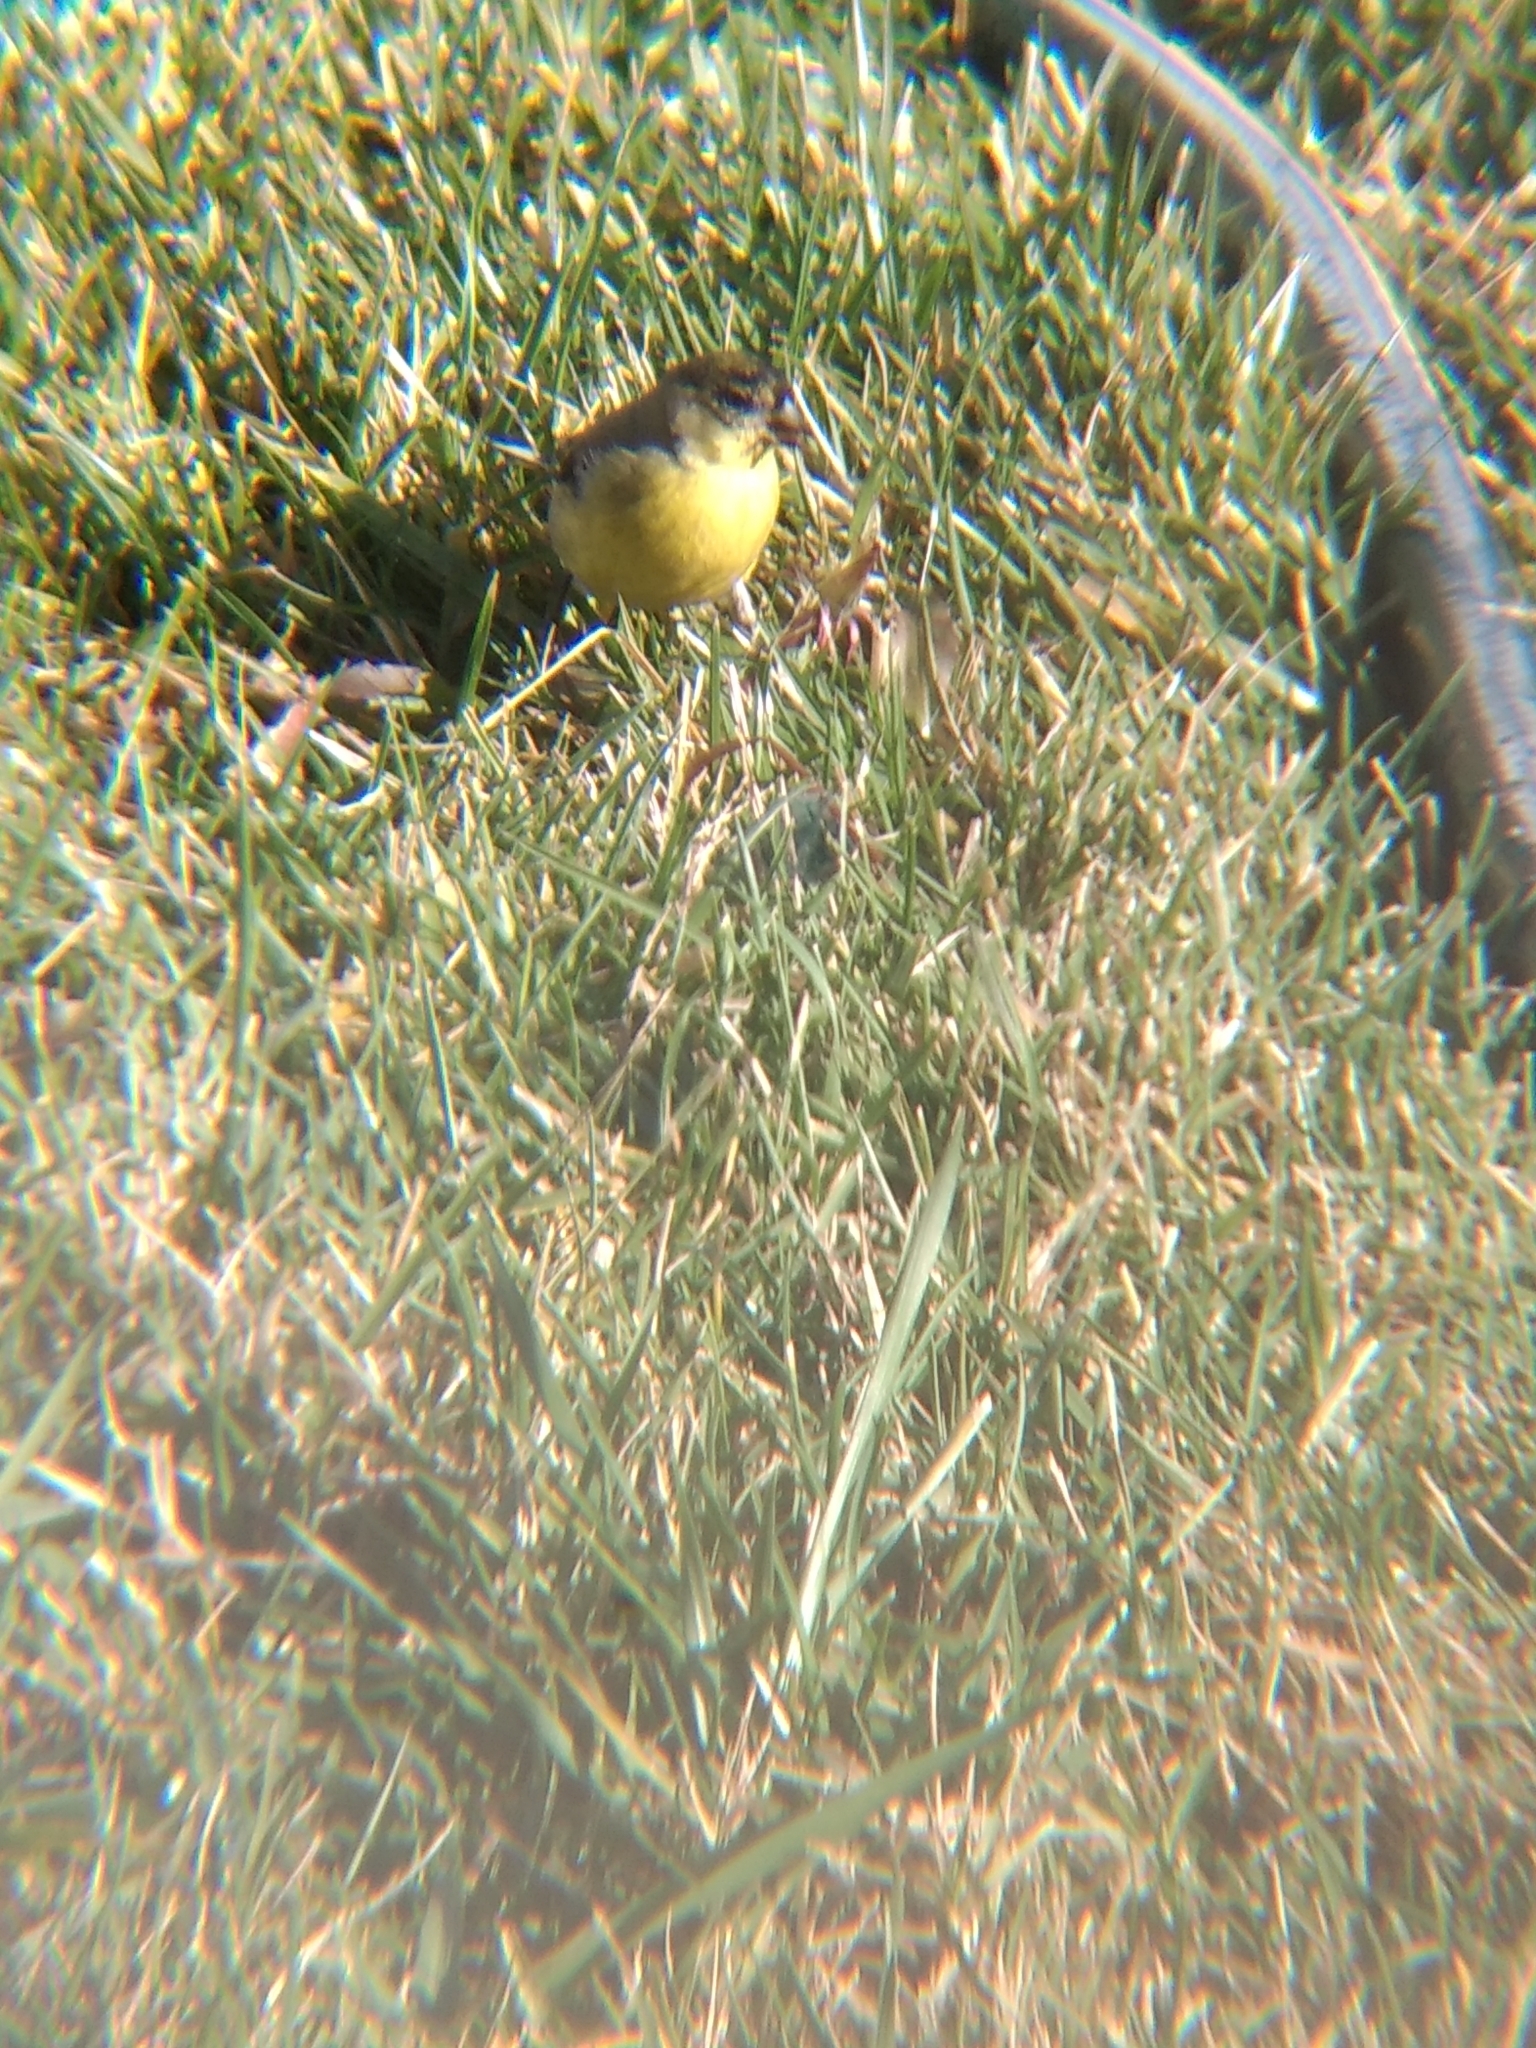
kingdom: Animalia
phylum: Chordata
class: Aves
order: Passeriformes
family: Fringillidae
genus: Spinus
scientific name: Spinus psaltria
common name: Lesser goldfinch
